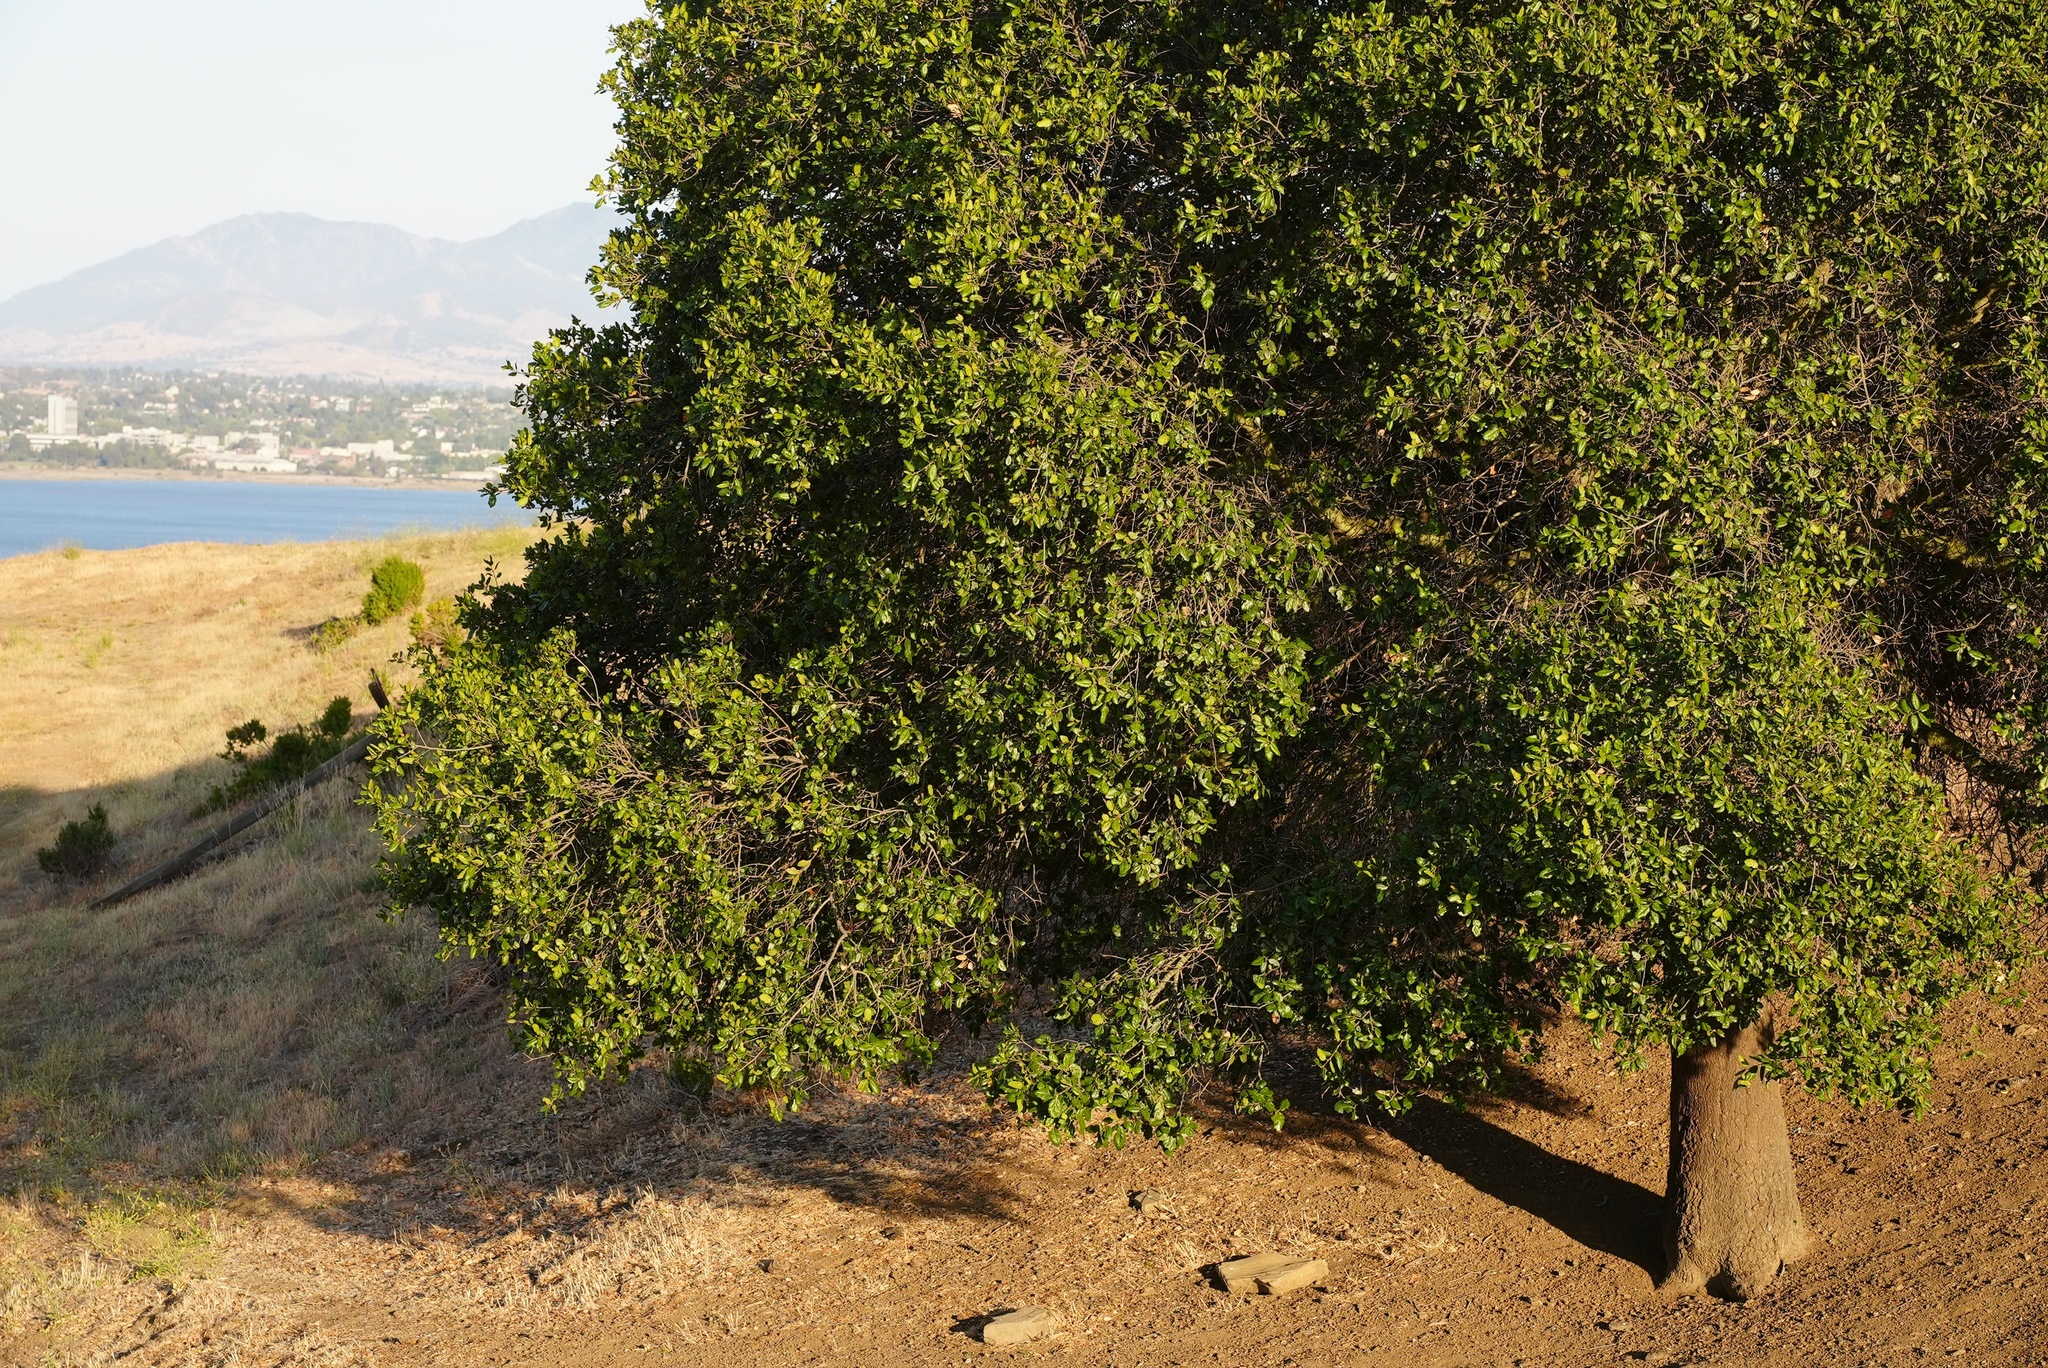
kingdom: Plantae
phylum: Tracheophyta
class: Magnoliopsida
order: Fagales
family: Fagaceae
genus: Quercus
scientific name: Quercus agrifolia
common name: California live oak
